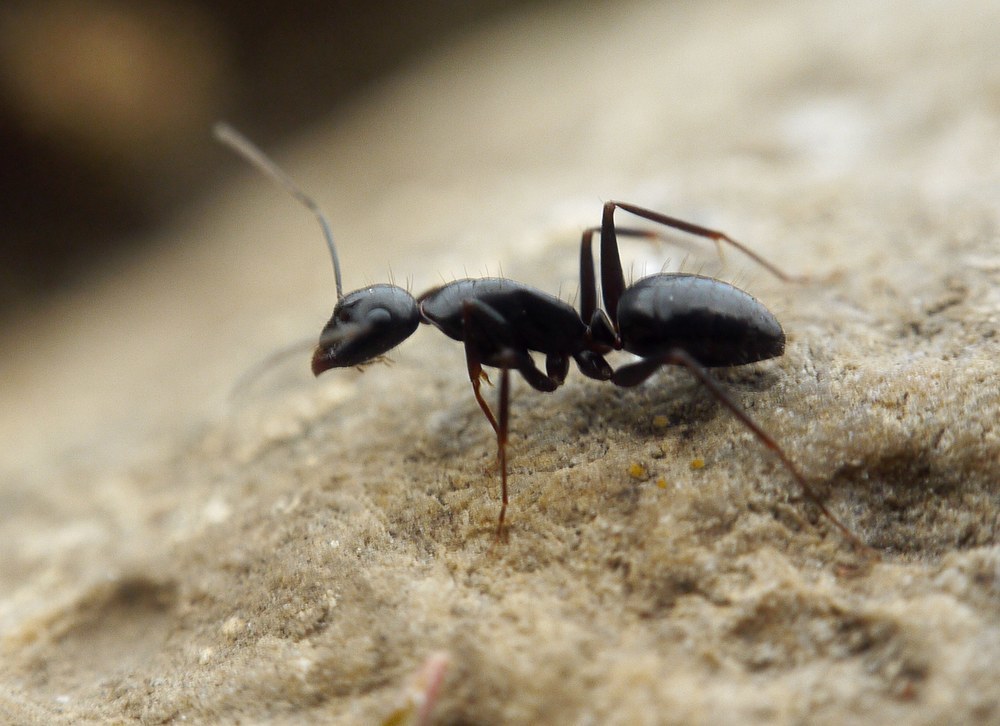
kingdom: Animalia
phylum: Arthropoda
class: Insecta
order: Hymenoptera
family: Formicidae
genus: Camponotus
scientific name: Camponotus aethiops
